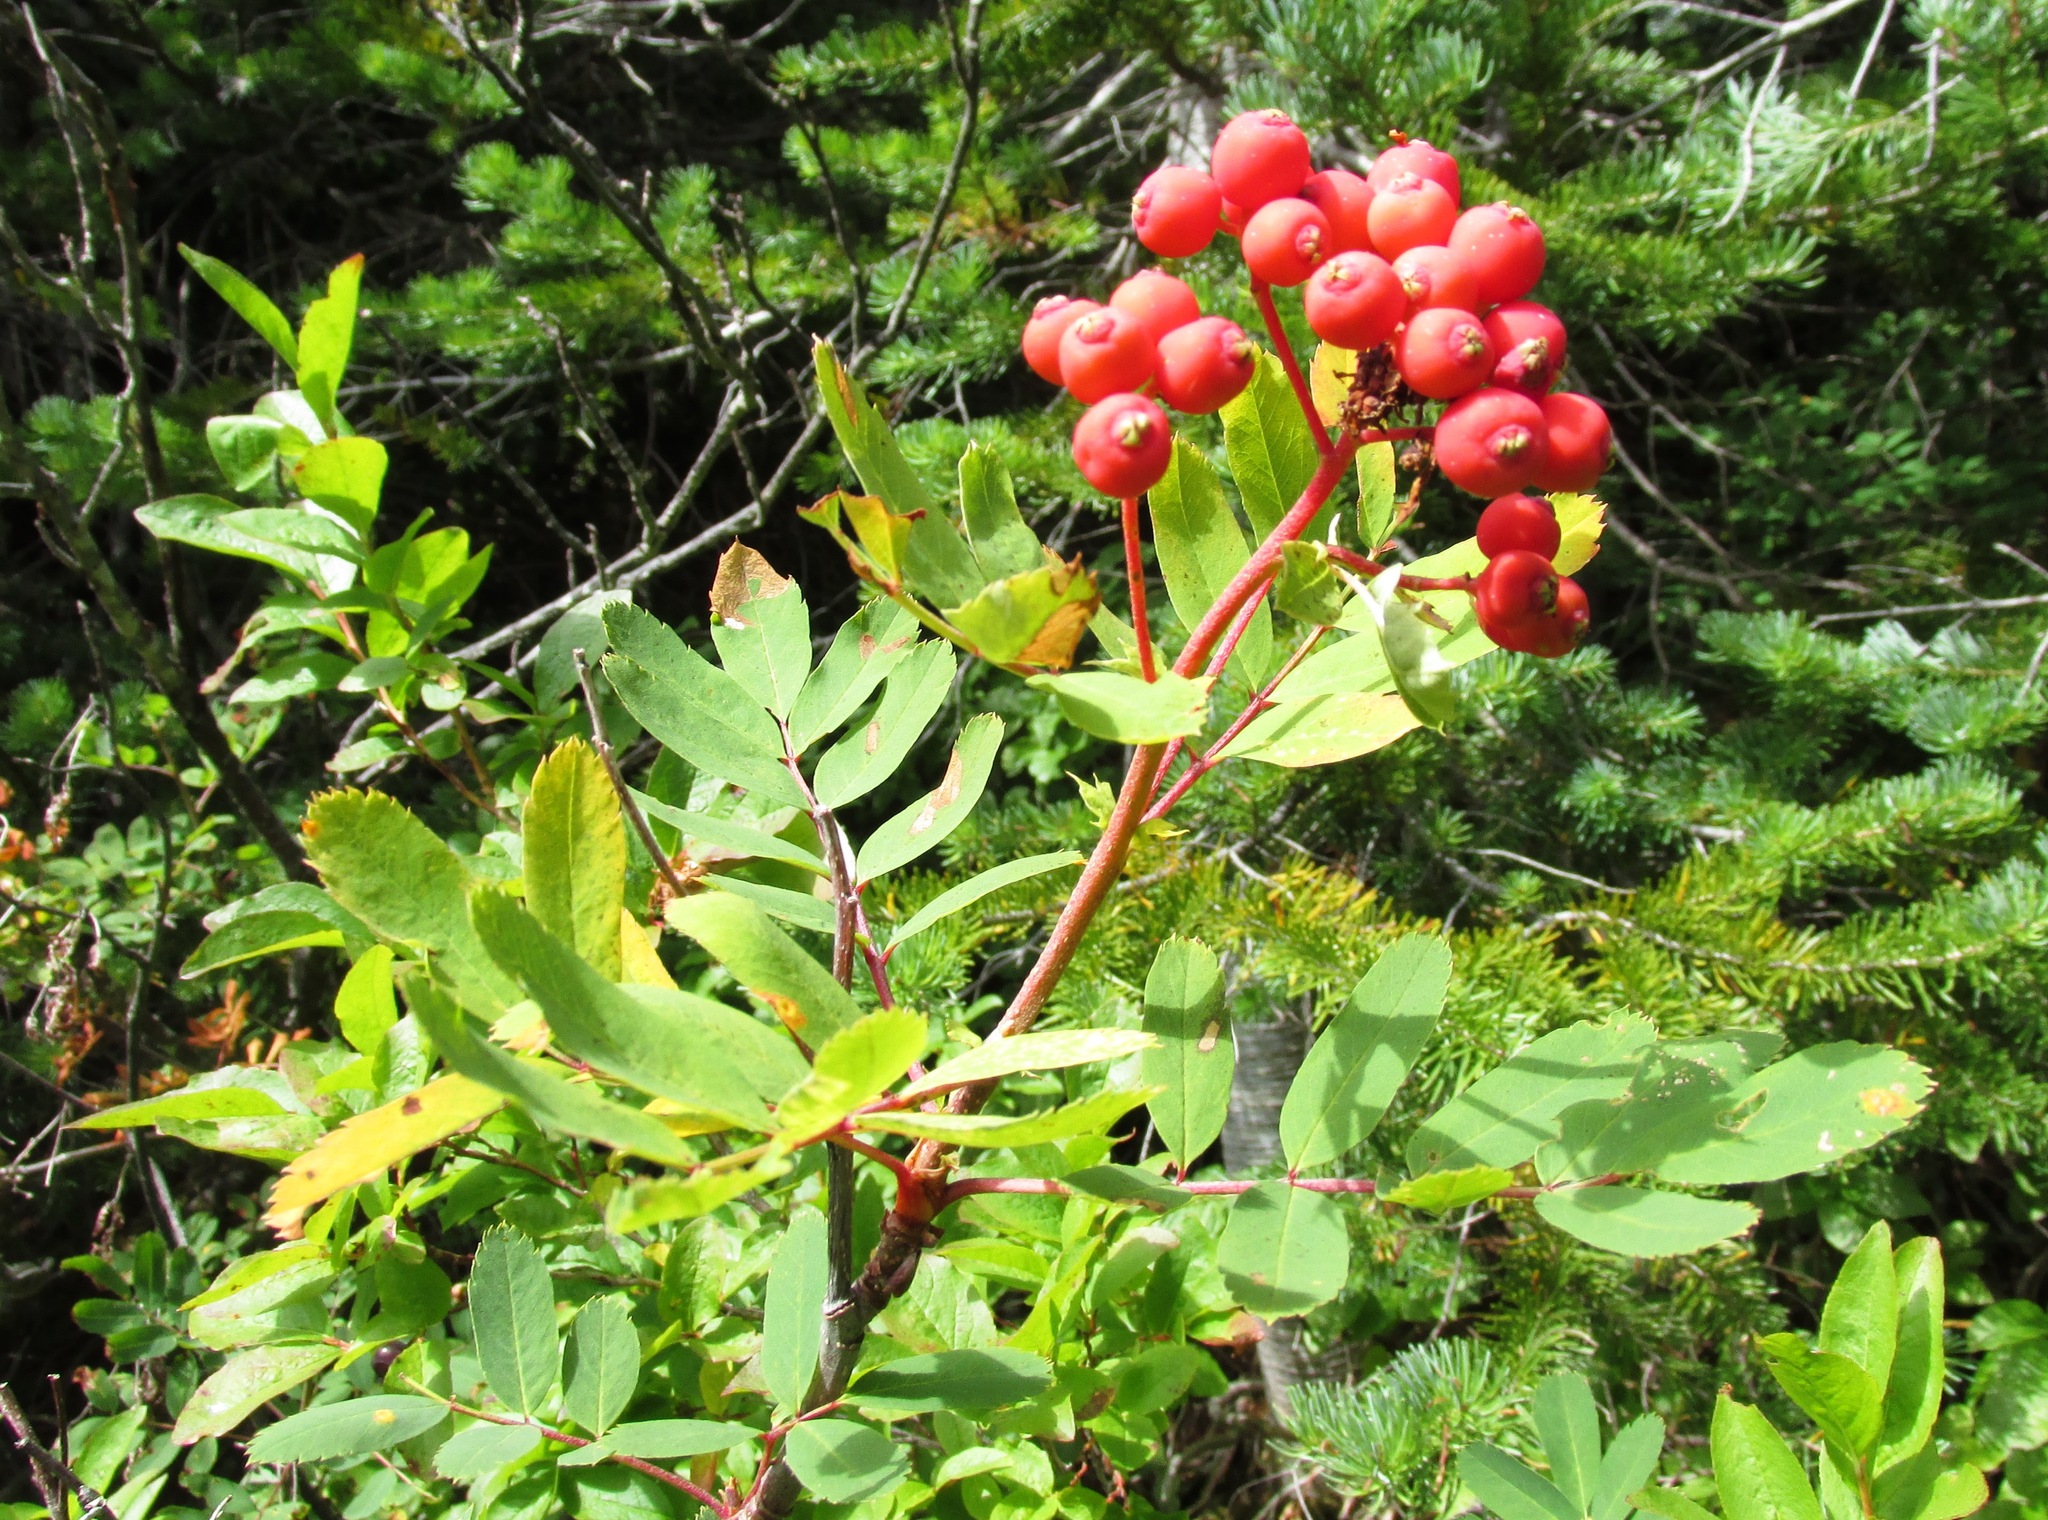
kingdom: Plantae
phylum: Tracheophyta
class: Magnoliopsida
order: Rosales
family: Rosaceae
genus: Sorbus
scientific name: Sorbus occidentalis
